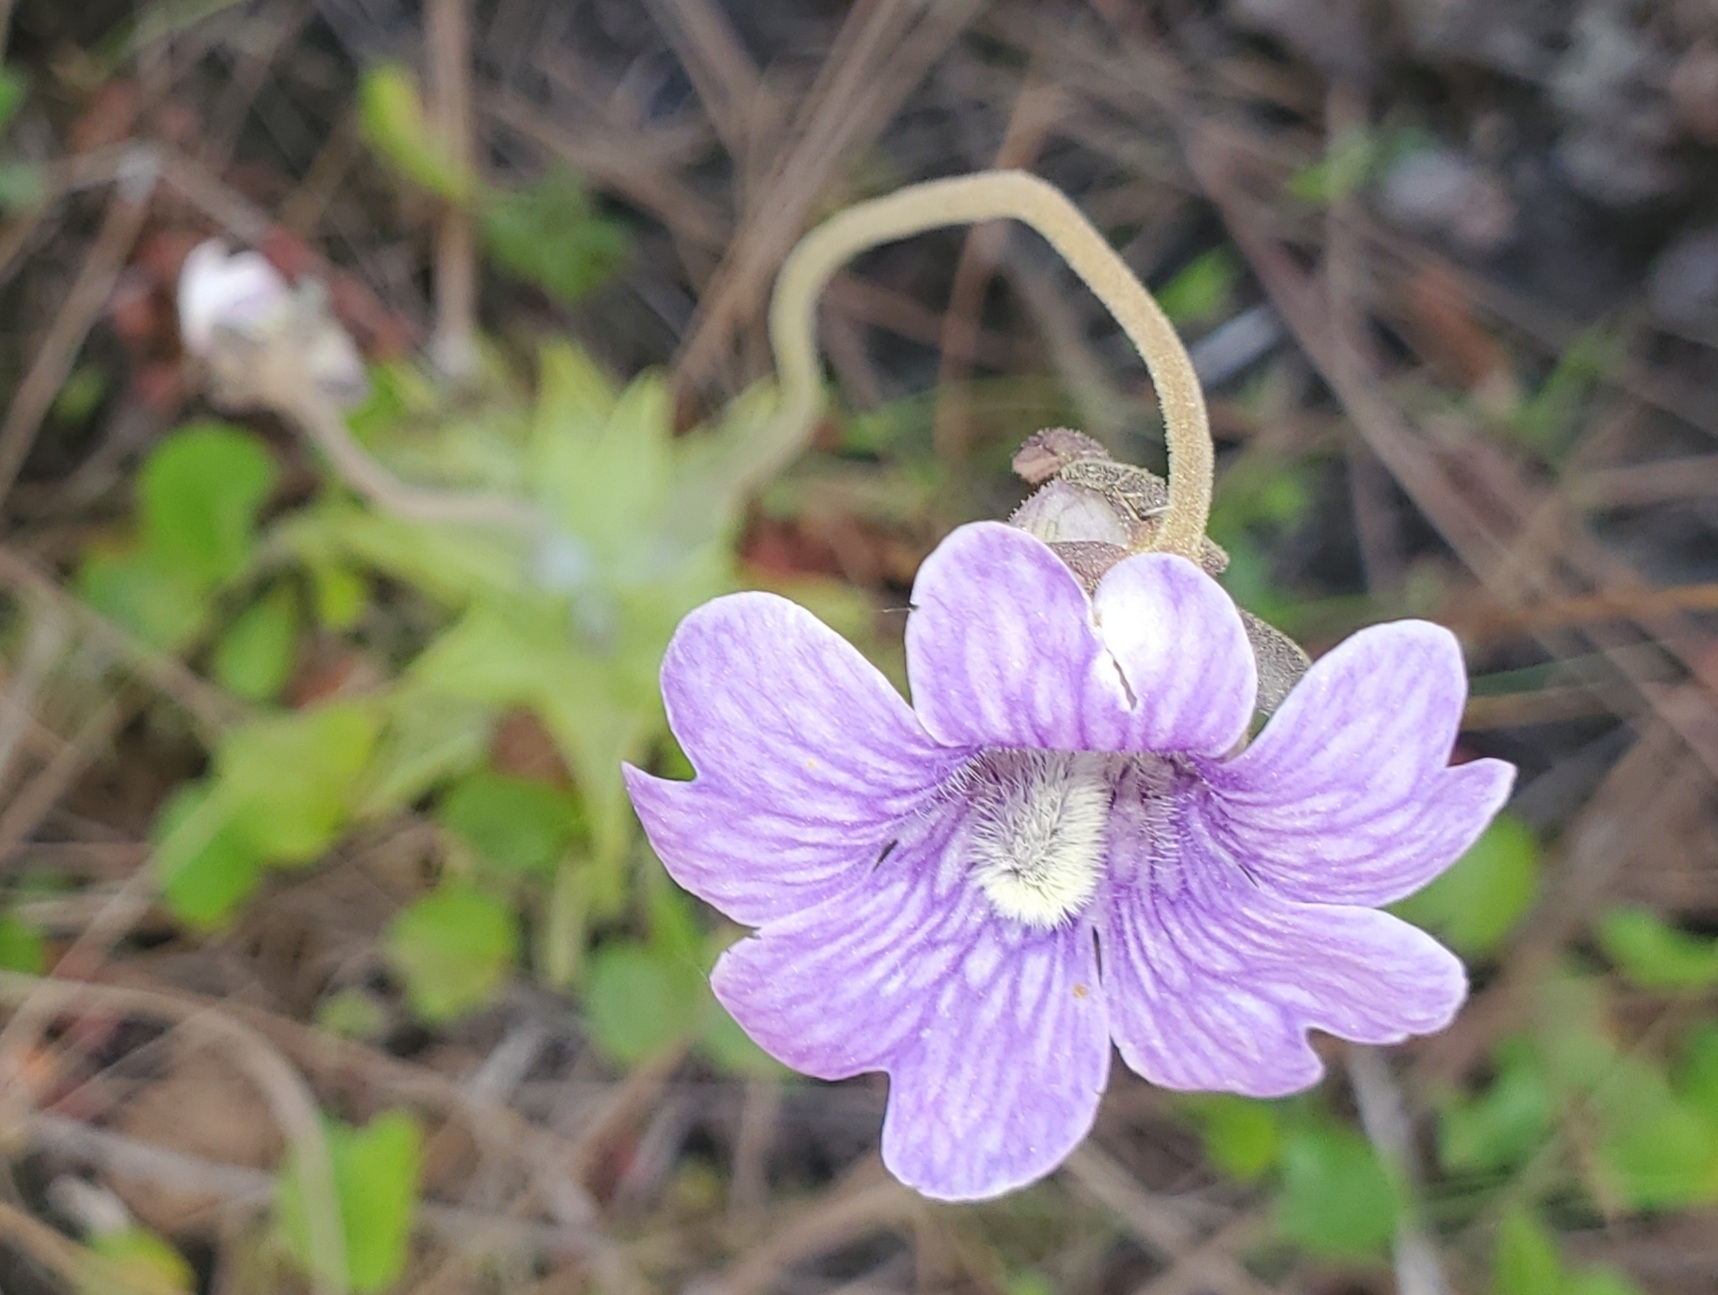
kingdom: Plantae
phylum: Tracheophyta
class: Magnoliopsida
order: Lamiales
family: Lentibulariaceae
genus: Pinguicula
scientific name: Pinguicula caerulea
